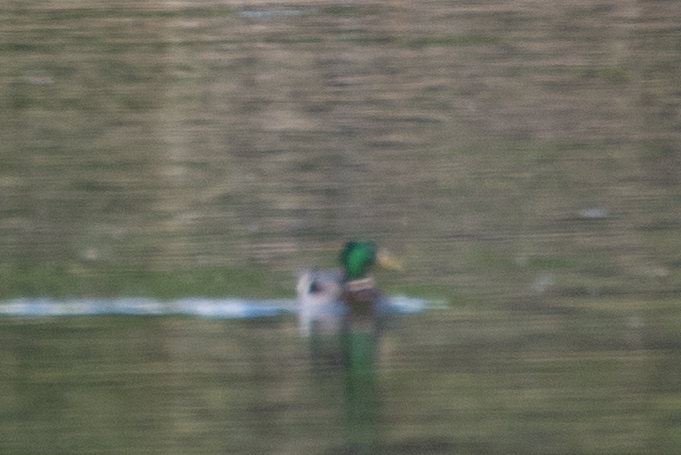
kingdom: Animalia
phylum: Chordata
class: Aves
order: Anseriformes
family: Anatidae
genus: Anas
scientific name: Anas platyrhynchos
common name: Mallard
